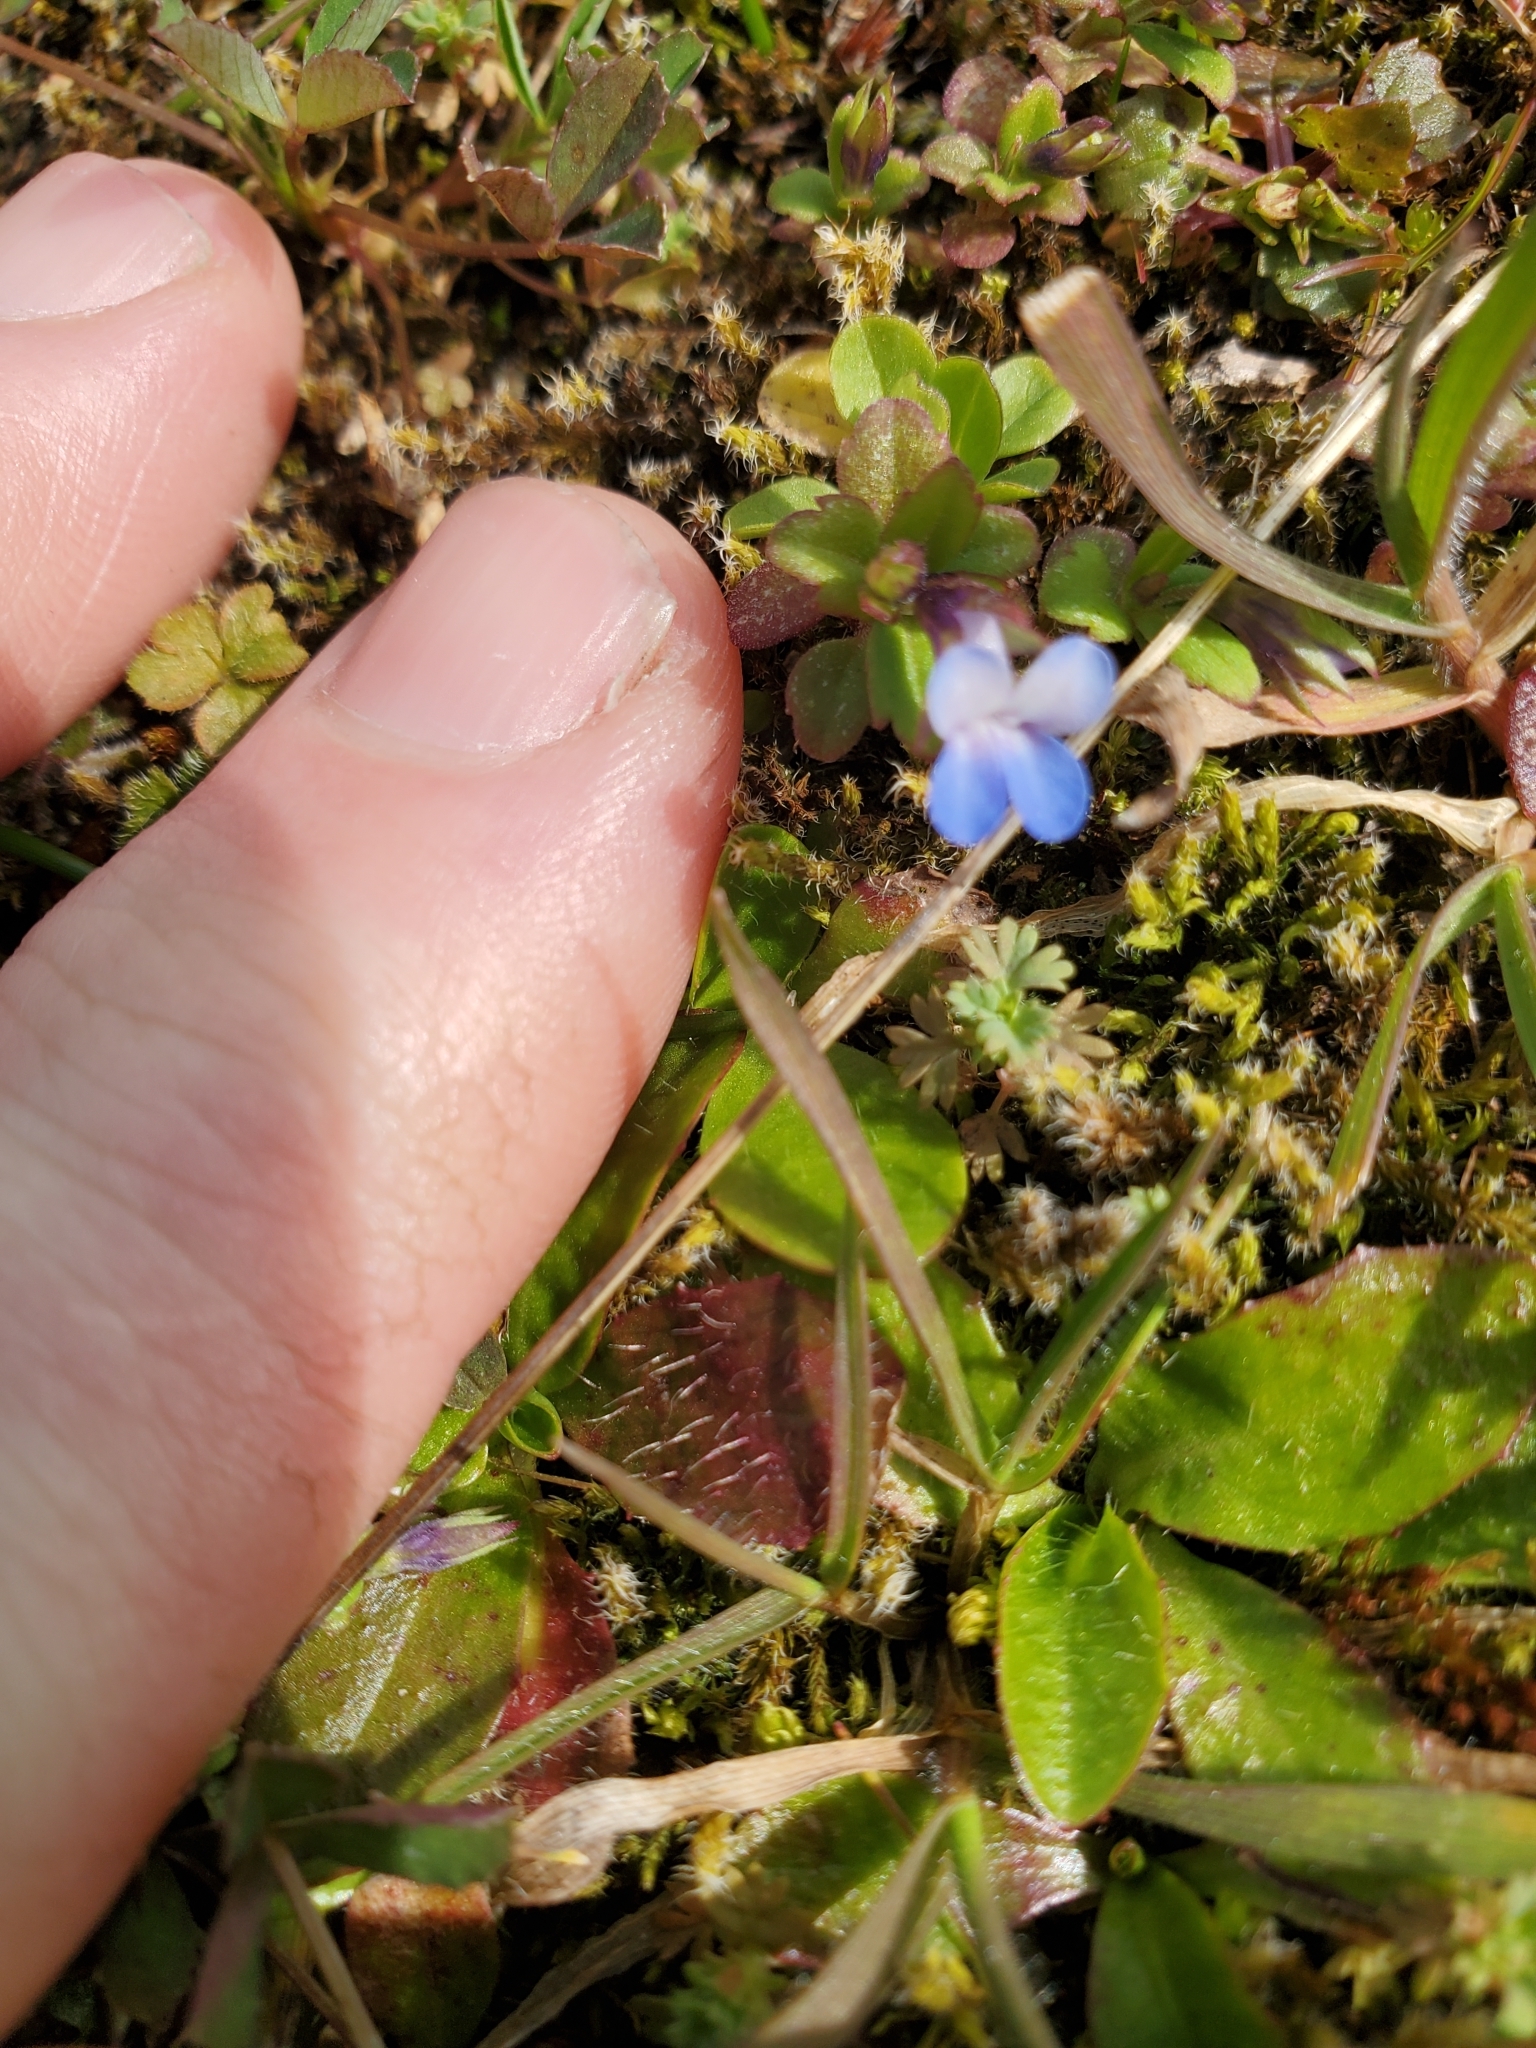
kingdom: Plantae
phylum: Tracheophyta
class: Magnoliopsida
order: Lamiales
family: Plantaginaceae
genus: Collinsia
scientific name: Collinsia parviflora
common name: Blue-lips
